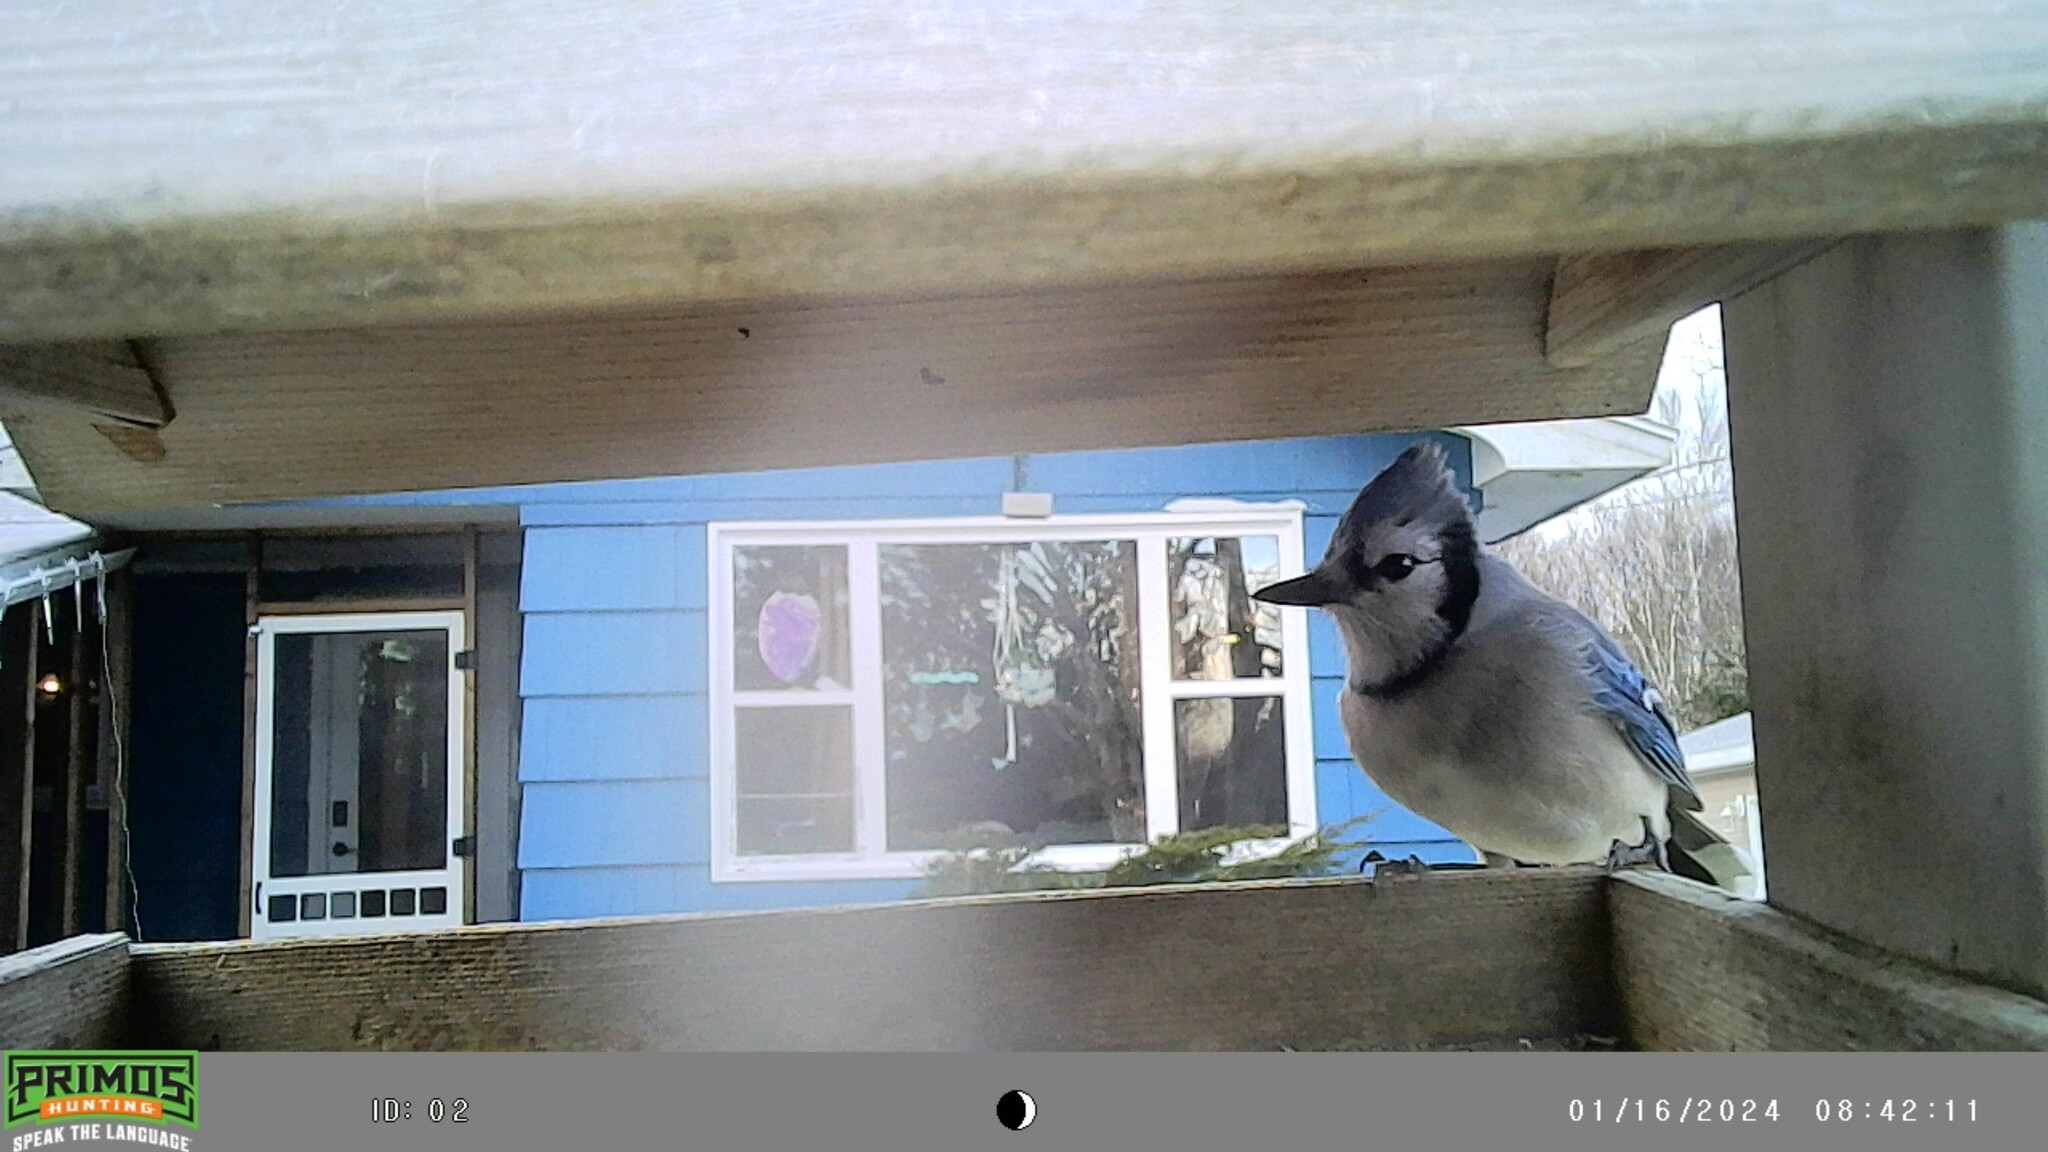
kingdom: Animalia
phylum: Chordata
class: Aves
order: Passeriformes
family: Corvidae
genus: Cyanocitta
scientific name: Cyanocitta cristata
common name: Blue jay
